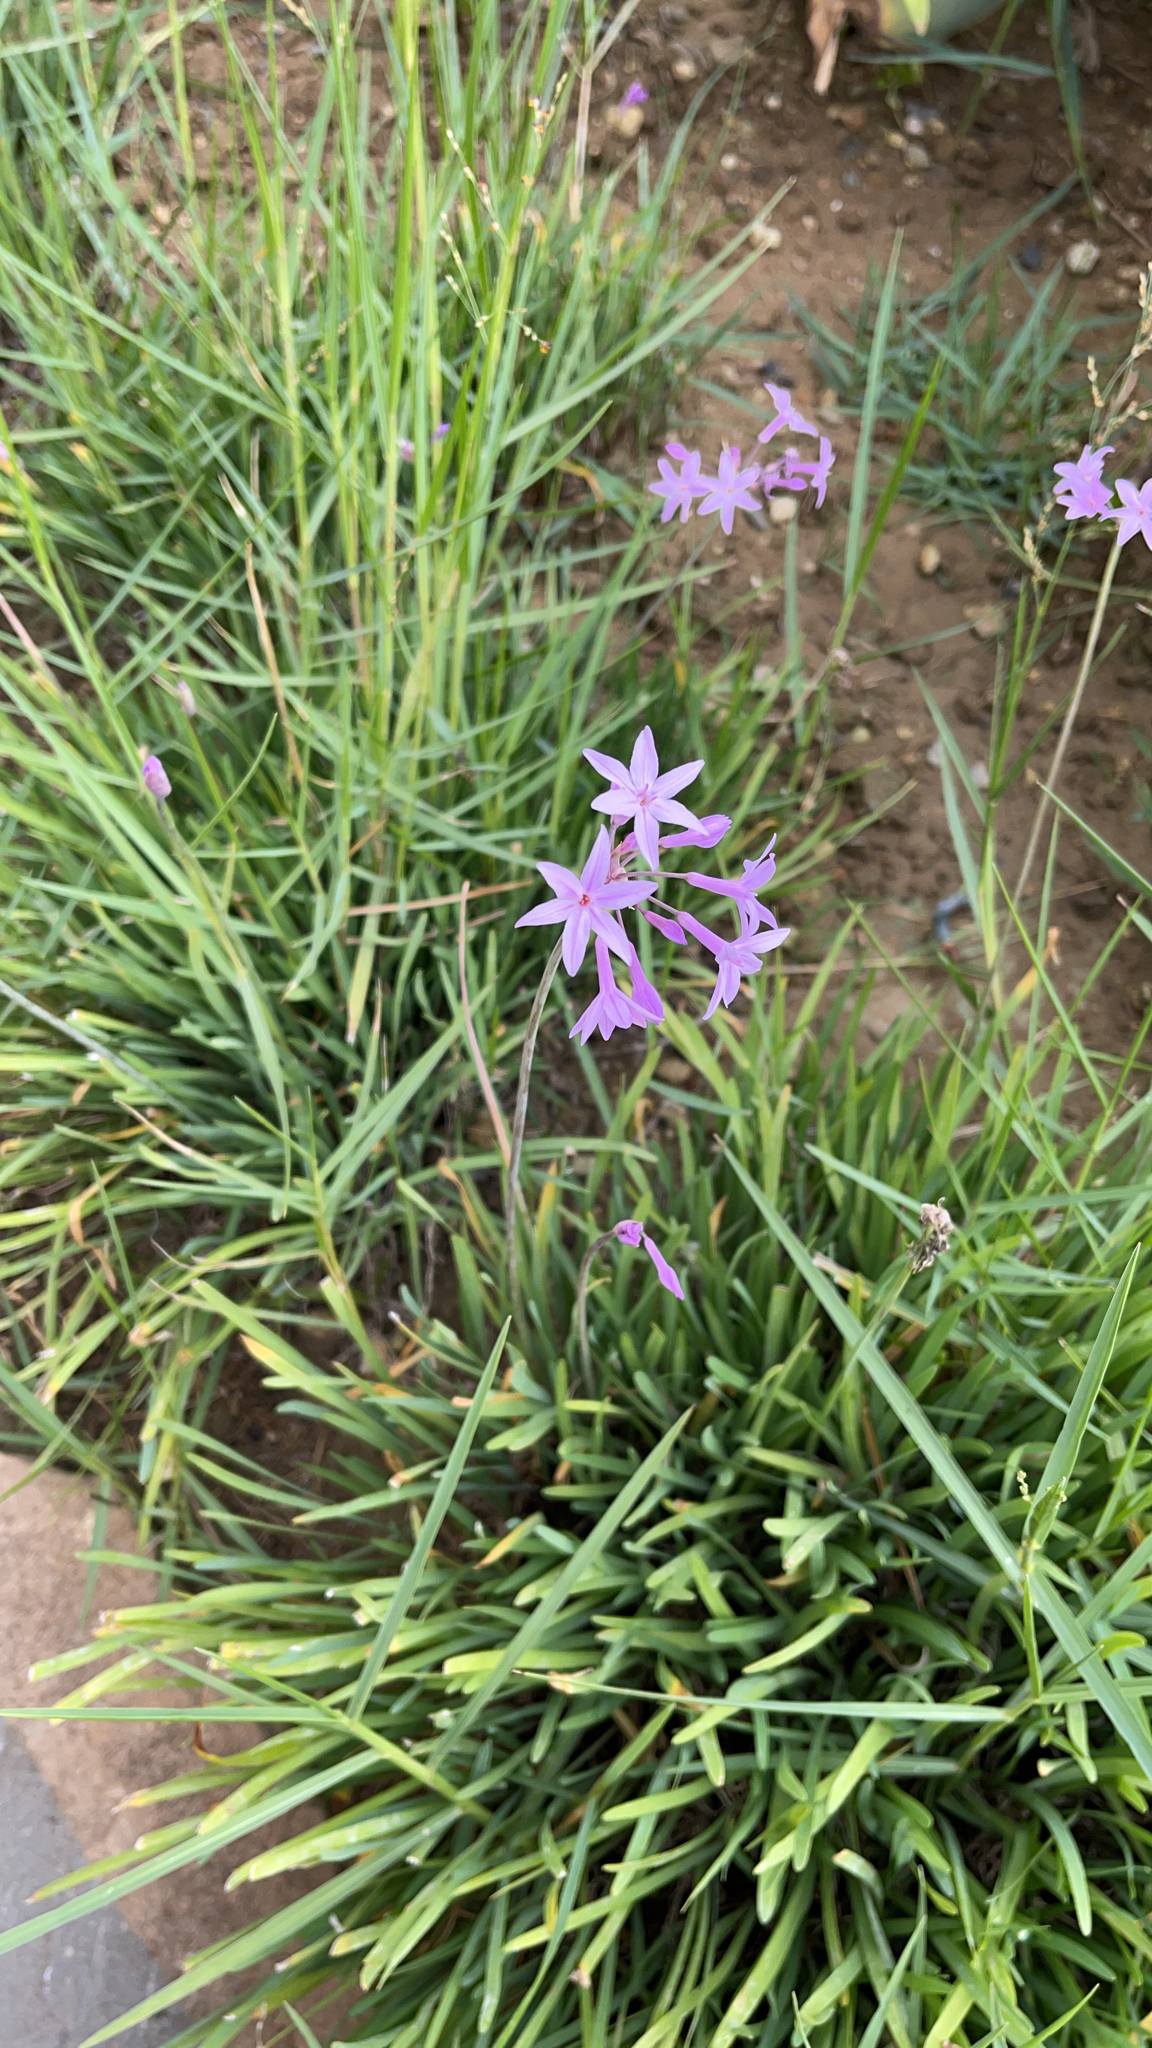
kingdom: Plantae
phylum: Tracheophyta
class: Liliopsida
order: Asparagales
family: Amaryllidaceae
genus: Tulbaghia
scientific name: Tulbaghia violacea
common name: Society garlic
